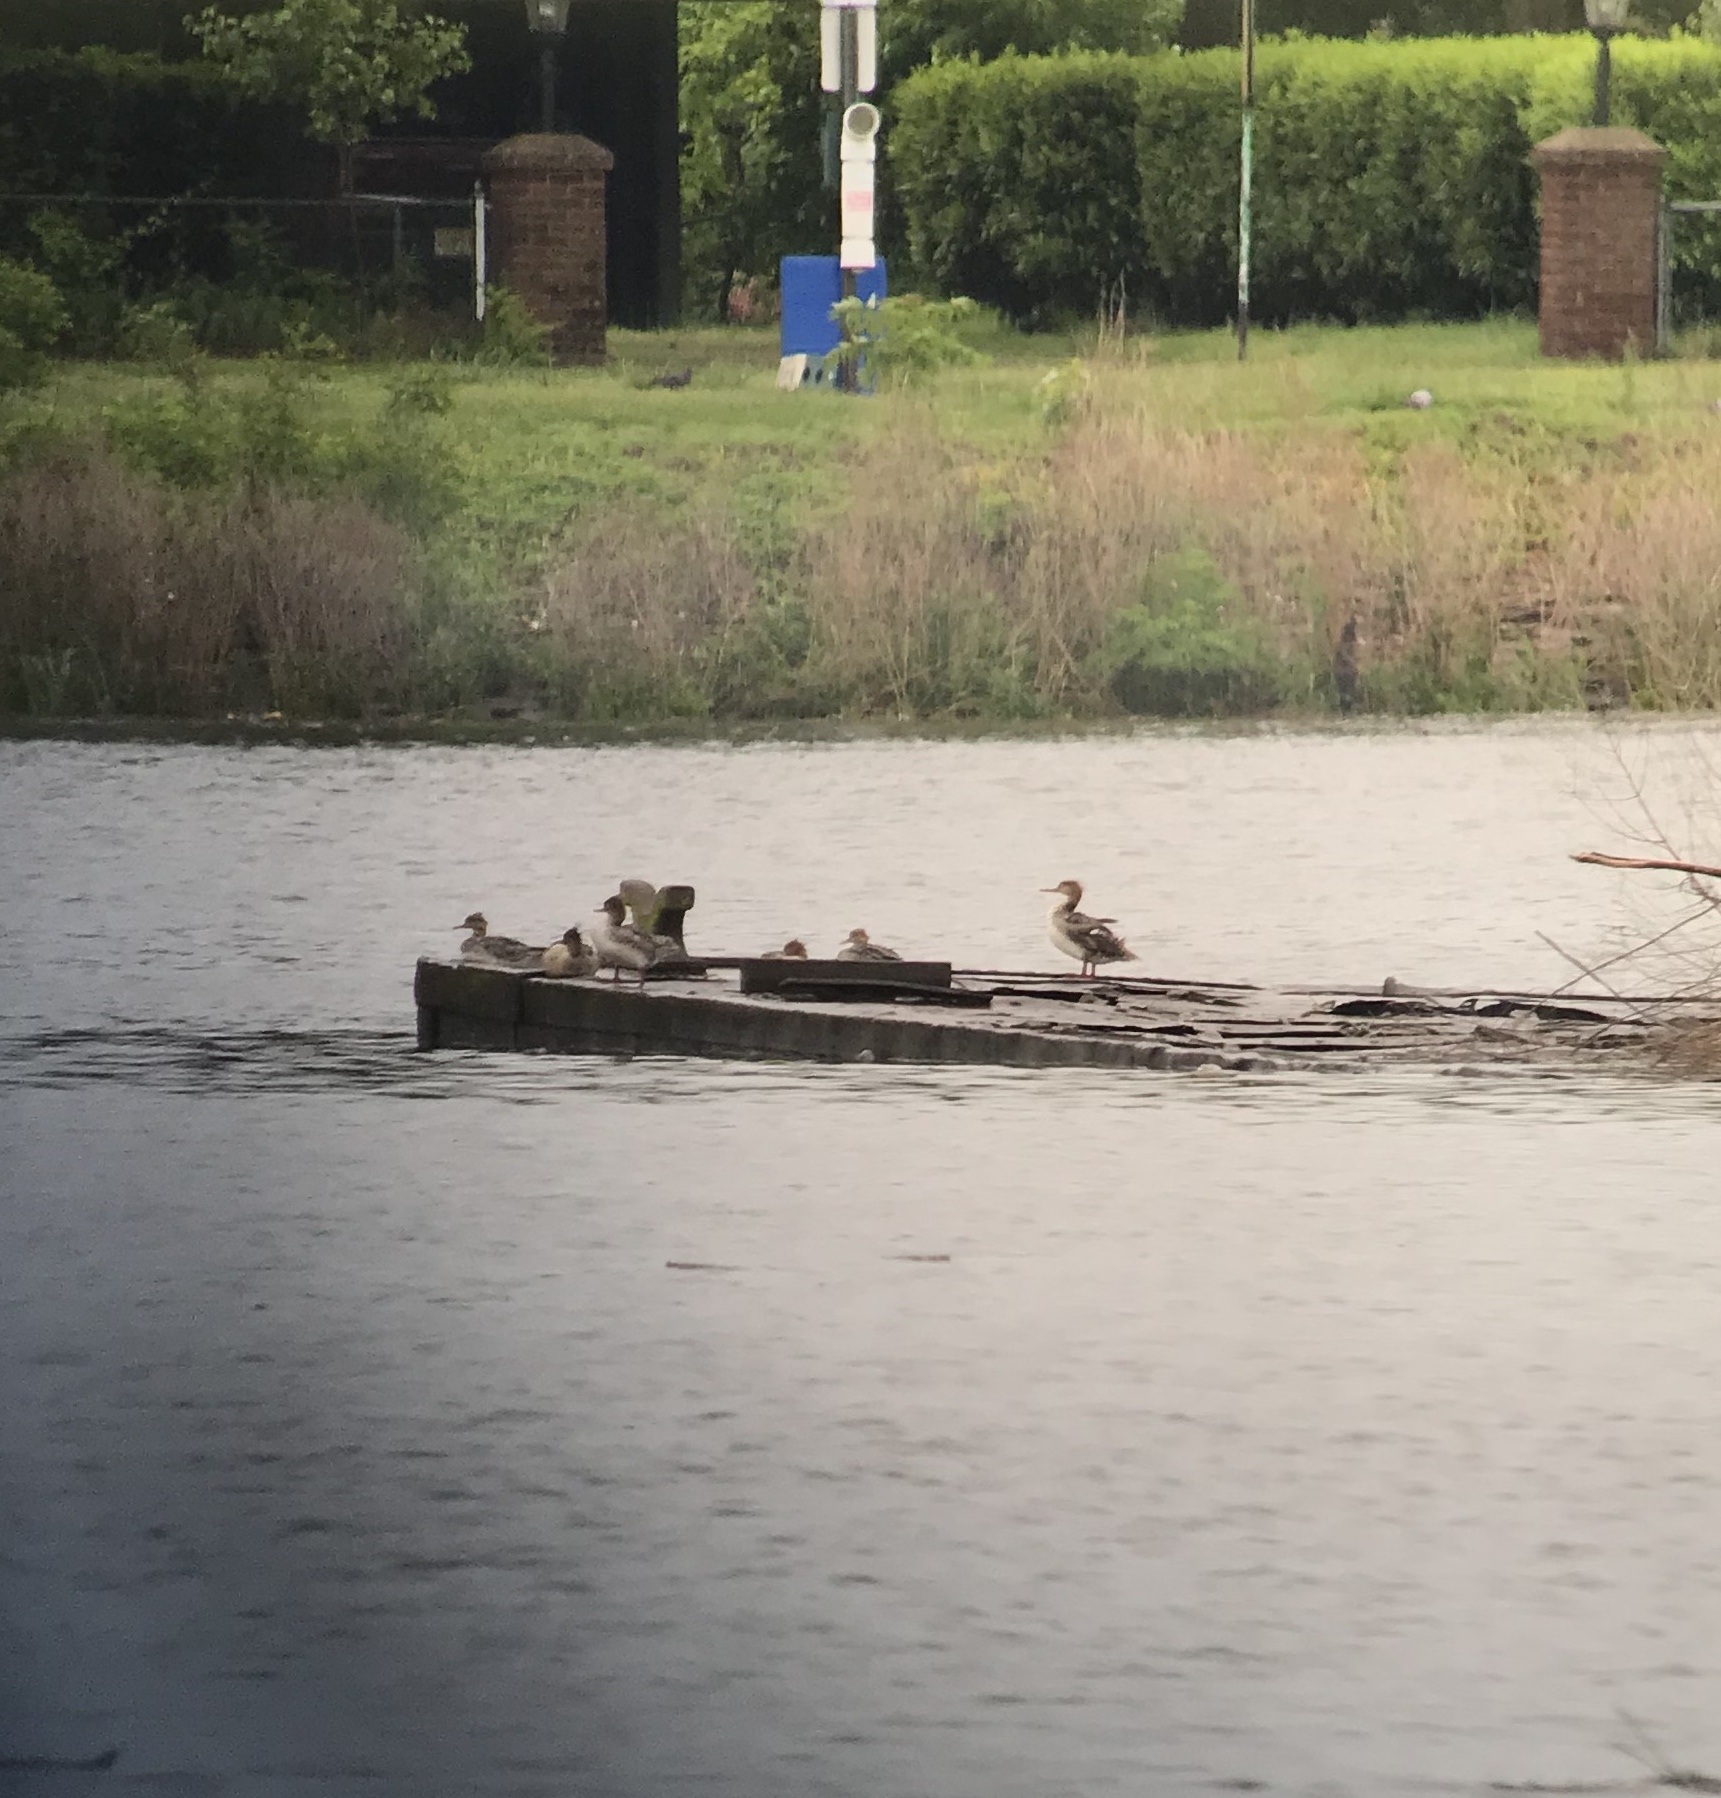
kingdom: Animalia
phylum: Chordata
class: Aves
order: Anseriformes
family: Anatidae
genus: Mergus
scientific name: Mergus serrator
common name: Red-breasted merganser
